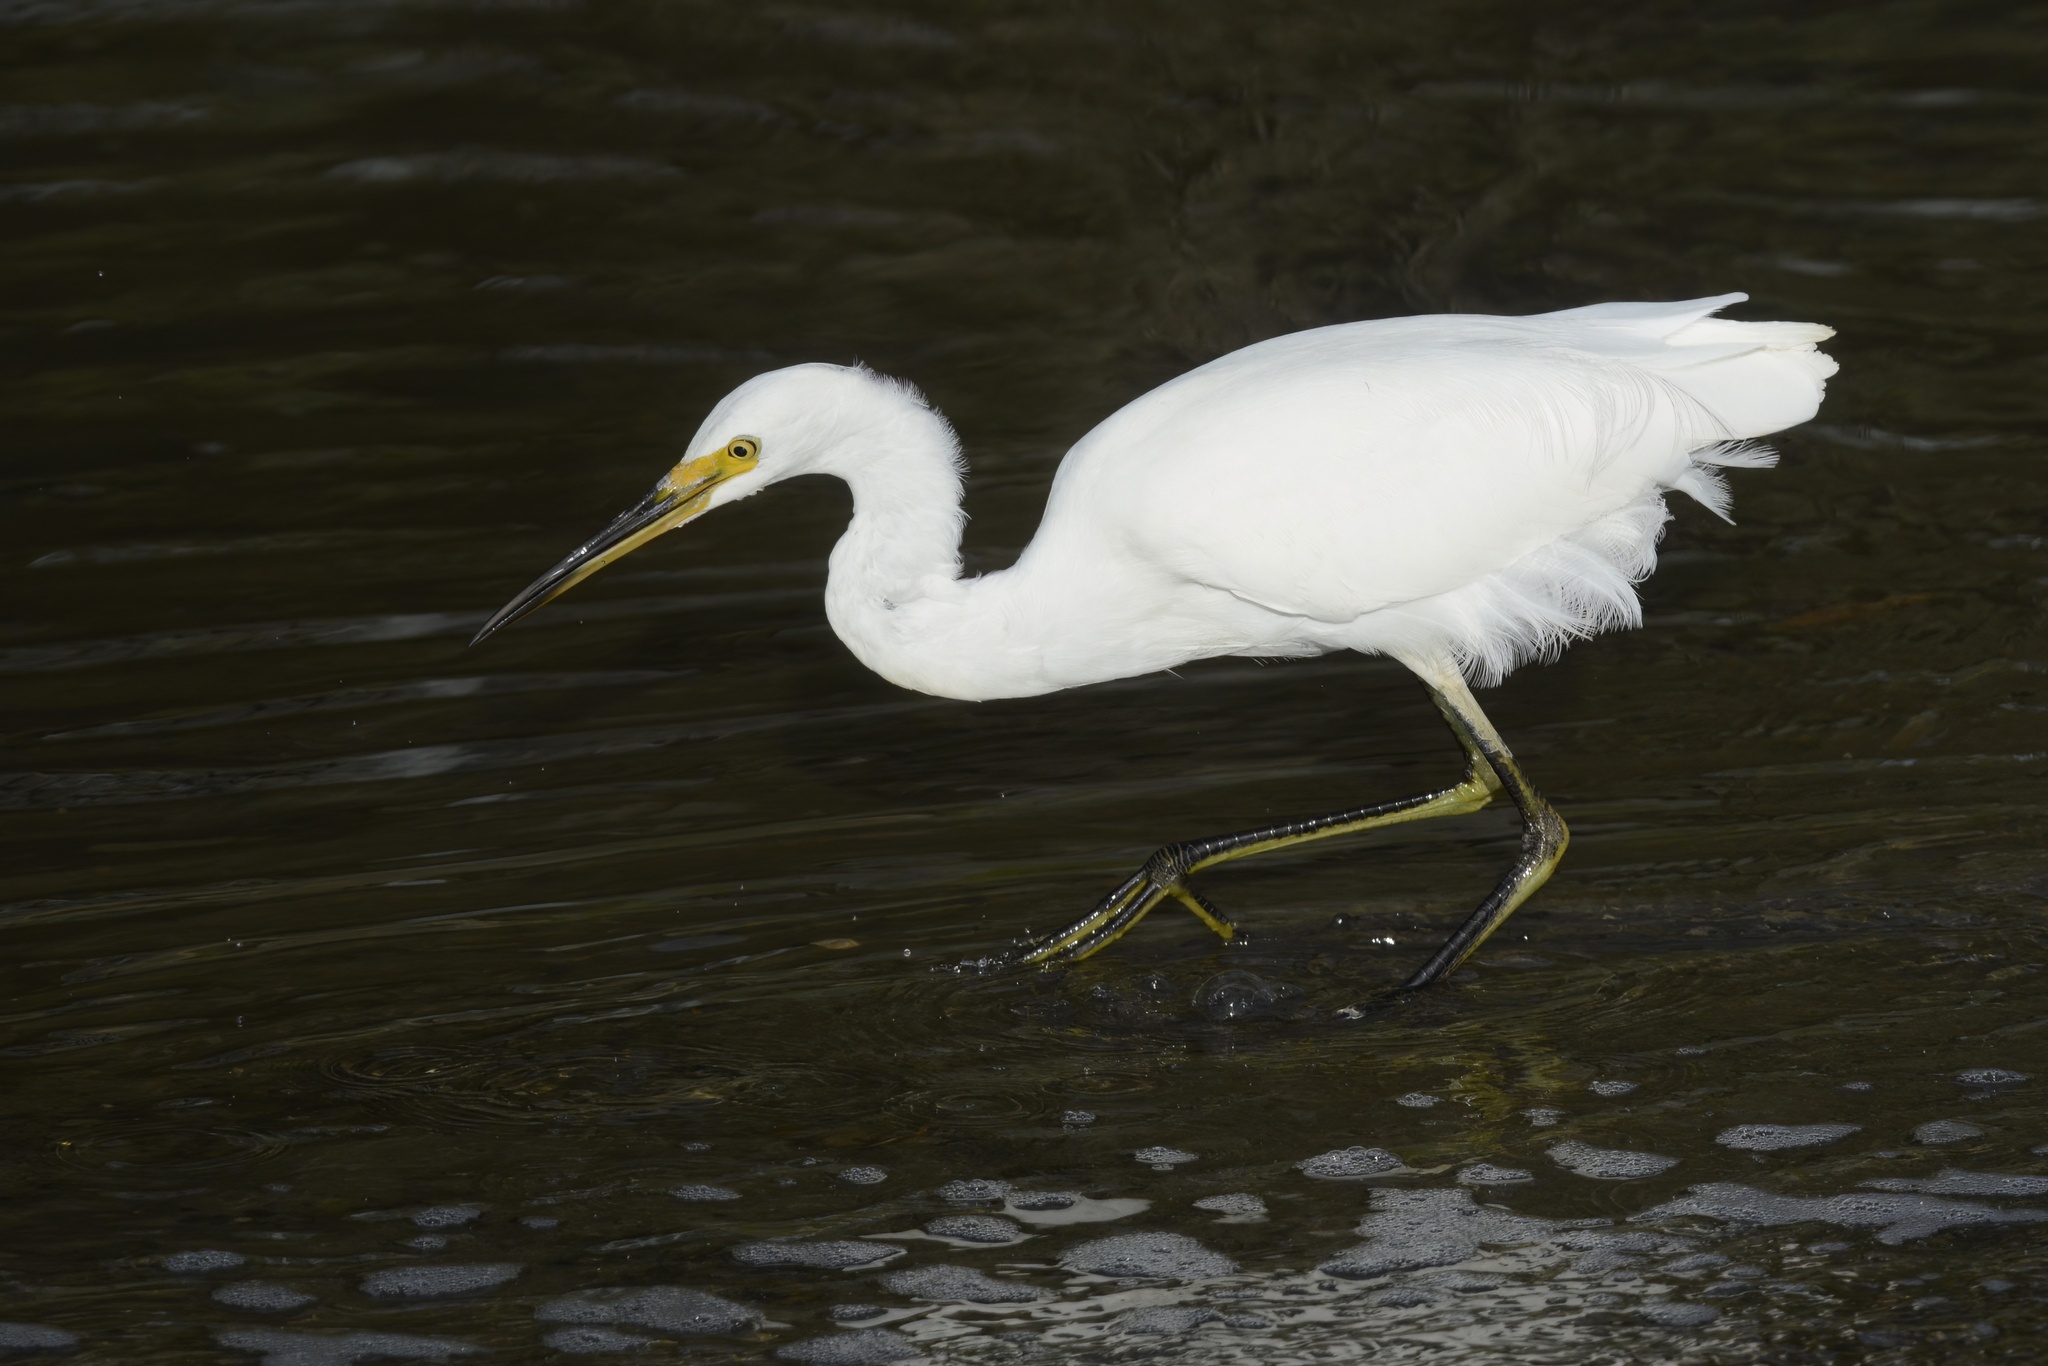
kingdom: Animalia
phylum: Chordata
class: Aves
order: Pelecaniformes
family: Ardeidae
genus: Egretta
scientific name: Egretta garzetta
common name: Little egret
